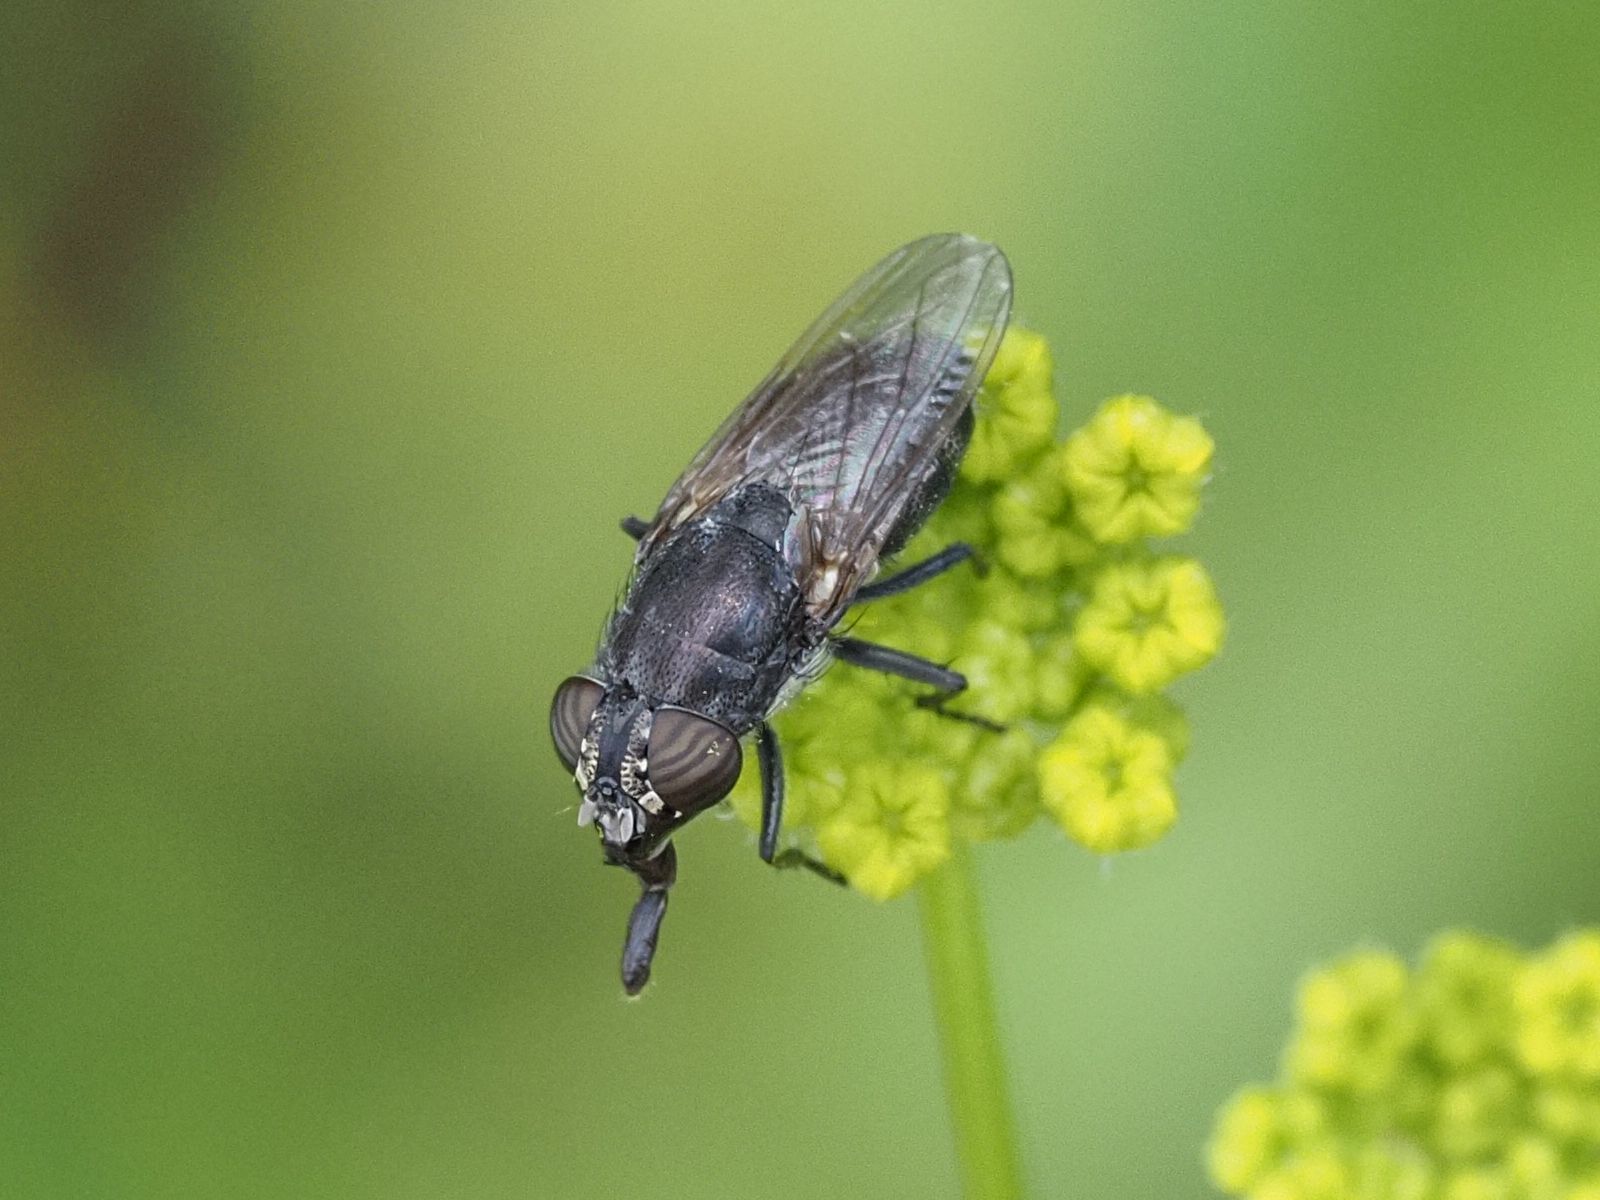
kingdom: Animalia
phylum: Arthropoda
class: Insecta
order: Diptera
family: Calliphoridae
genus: Stomorhina
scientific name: Stomorhina lunata
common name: Locust blowfly
